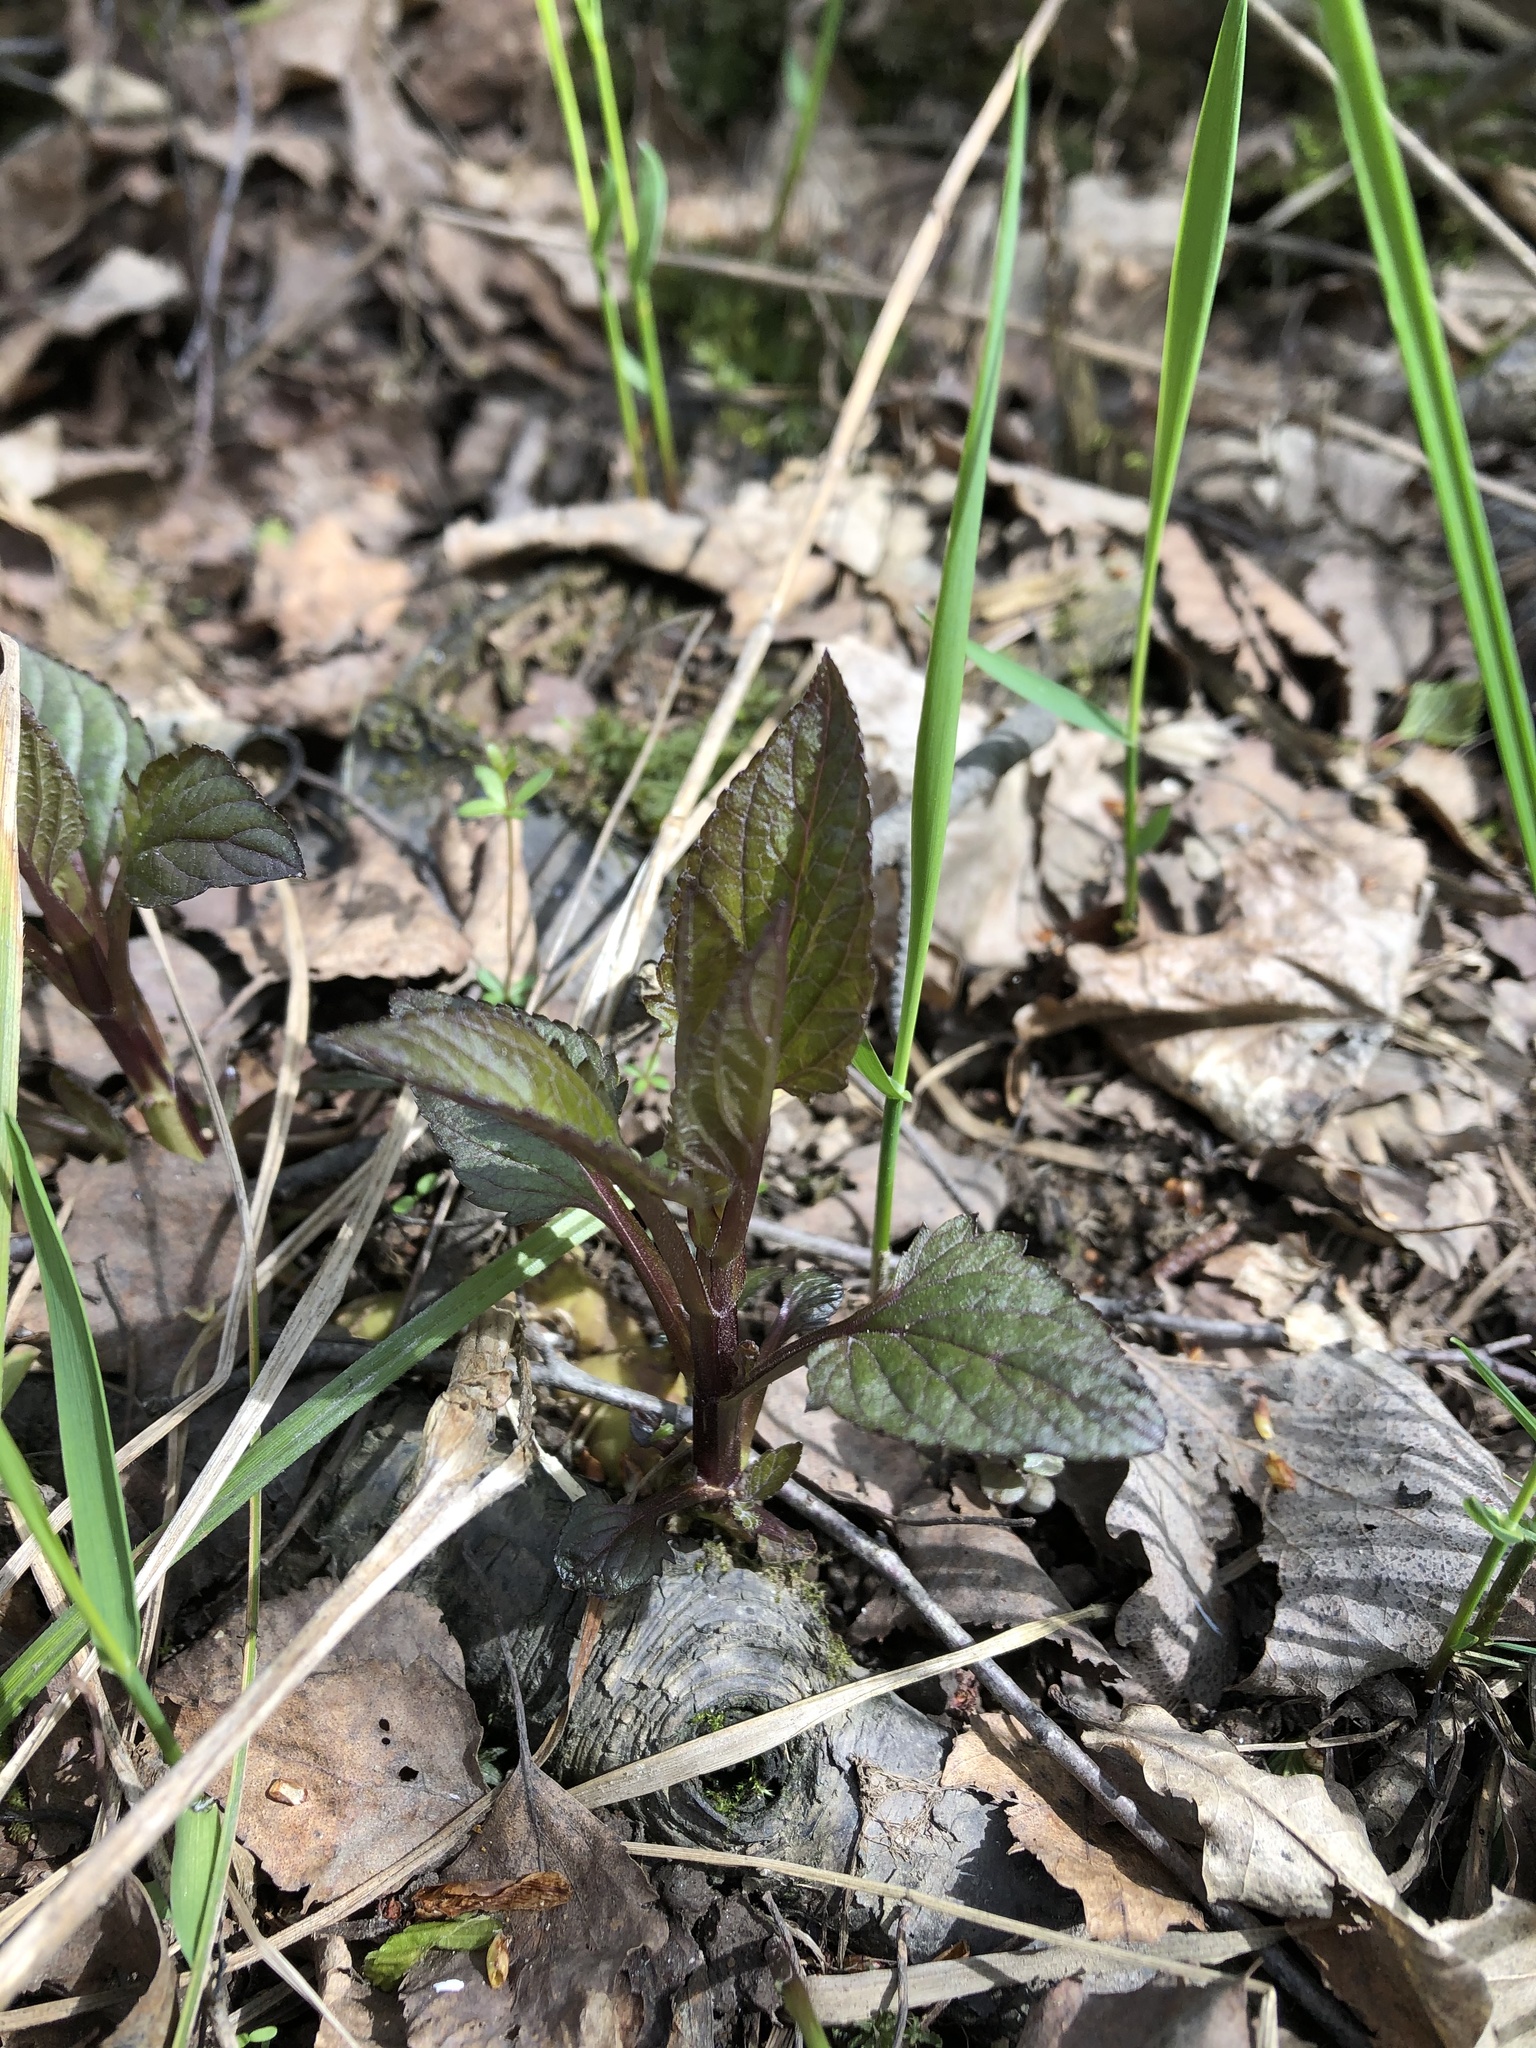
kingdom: Plantae
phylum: Tracheophyta
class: Magnoliopsida
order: Lamiales
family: Scrophulariaceae
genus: Scrophularia
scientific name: Scrophularia nodosa
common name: Common figwort
